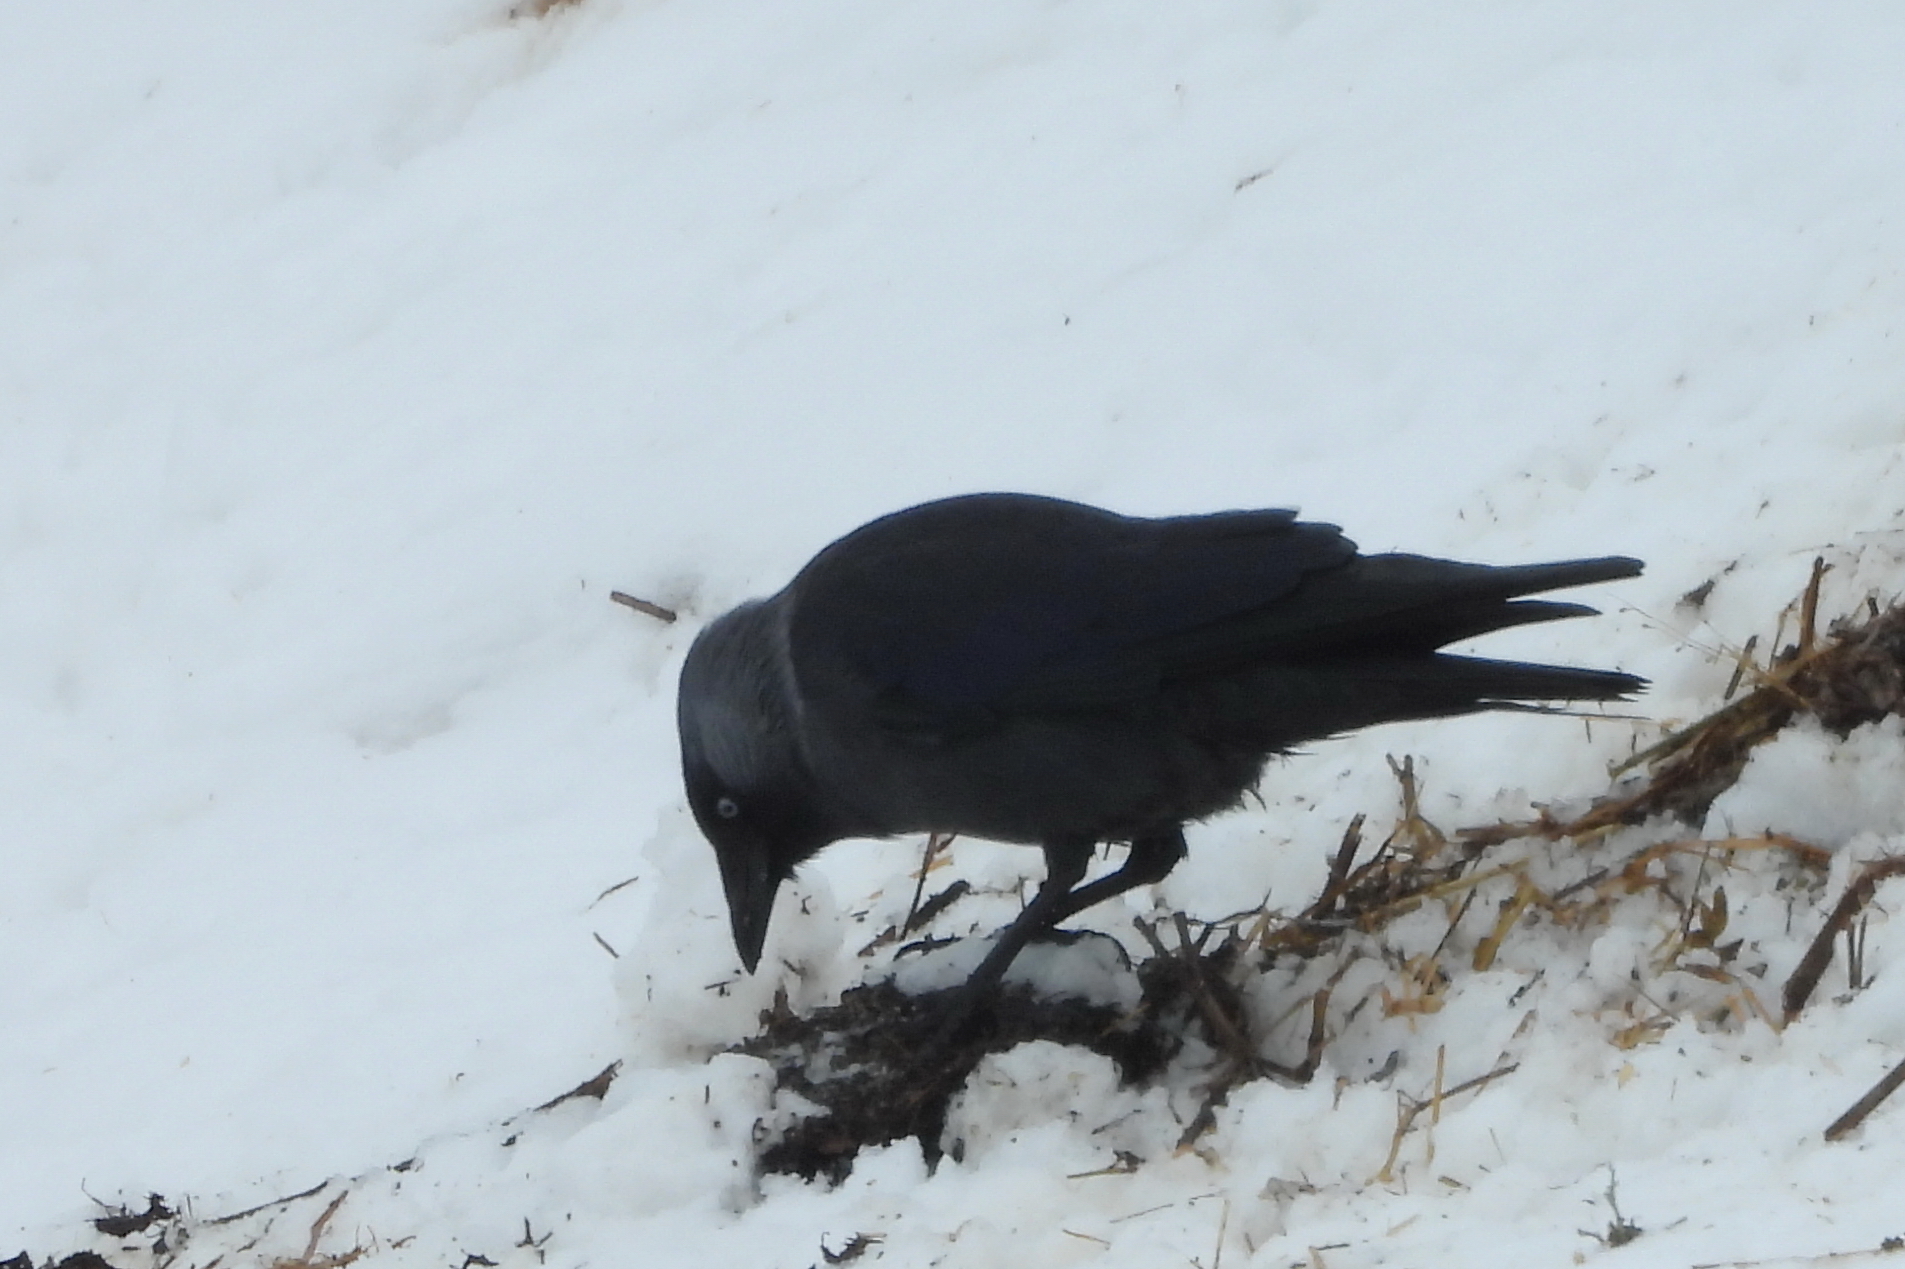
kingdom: Animalia
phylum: Chordata
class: Aves
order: Passeriformes
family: Corvidae
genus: Coloeus
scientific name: Coloeus monedula
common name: Western jackdaw
